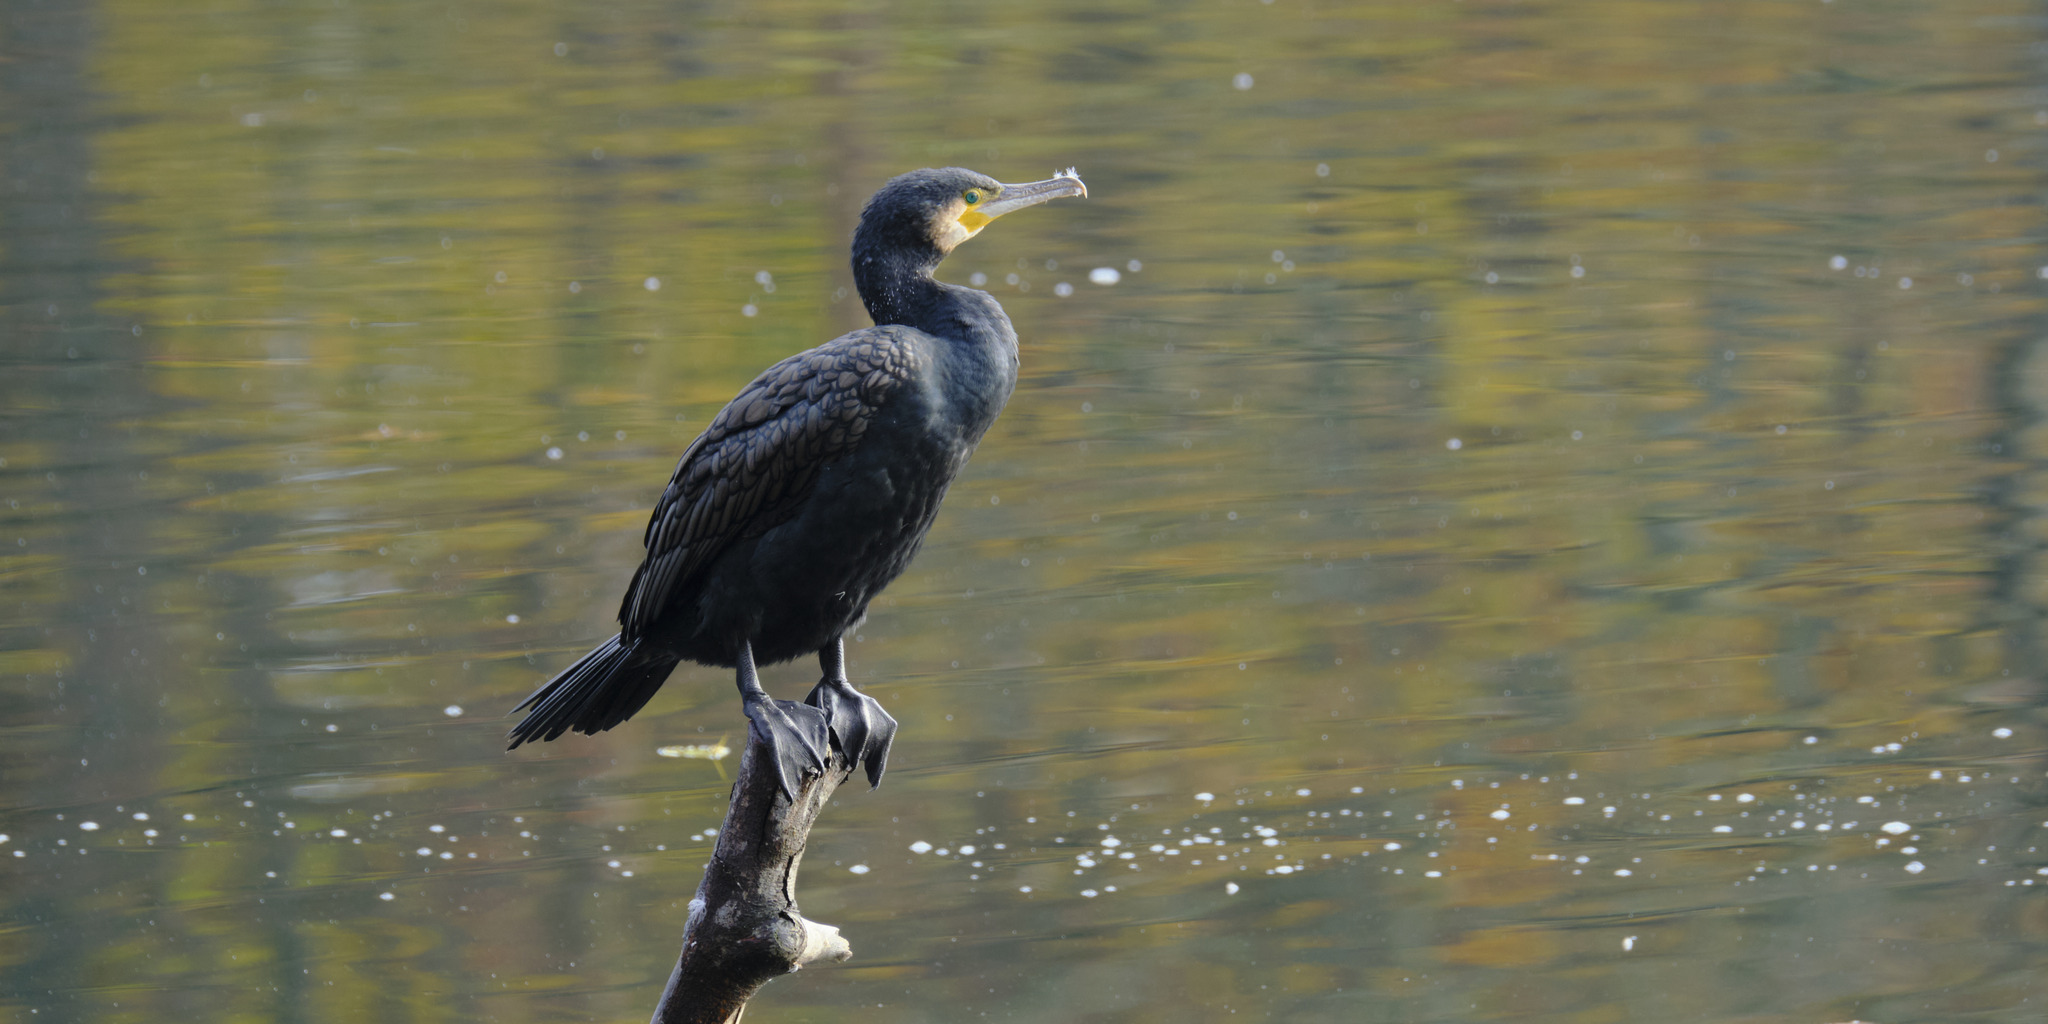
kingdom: Animalia
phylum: Chordata
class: Aves
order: Suliformes
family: Phalacrocoracidae
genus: Phalacrocorax
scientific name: Phalacrocorax carbo
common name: Great cormorant
